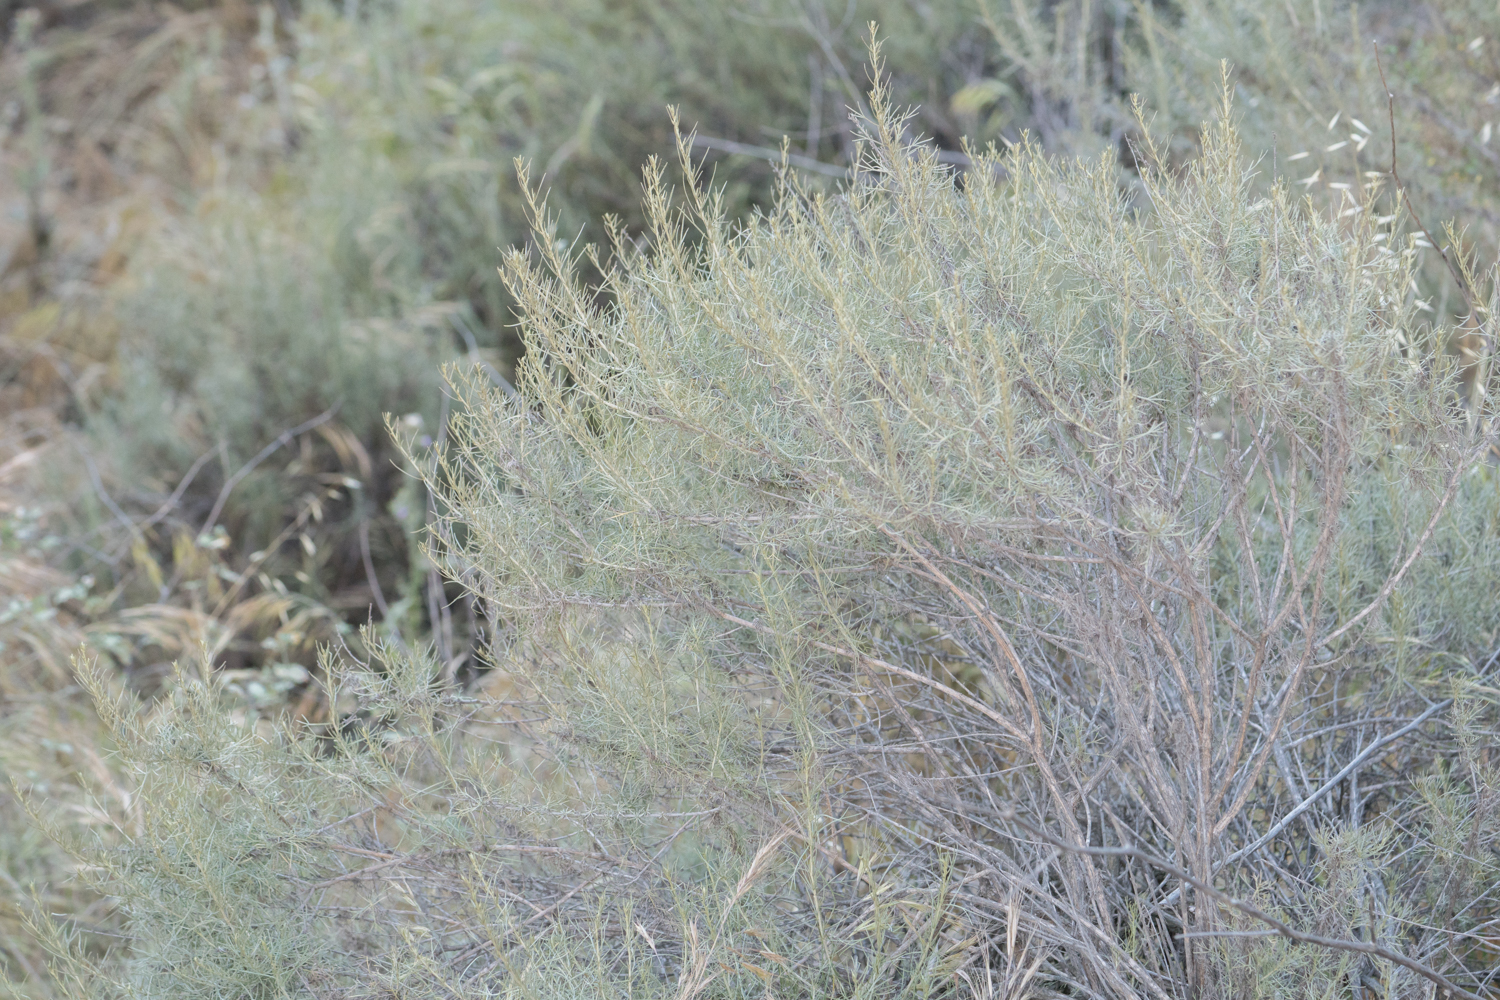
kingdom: Plantae
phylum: Tracheophyta
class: Magnoliopsida
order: Asterales
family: Asteraceae
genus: Artemisia
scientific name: Artemisia californica
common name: California sagebrush
